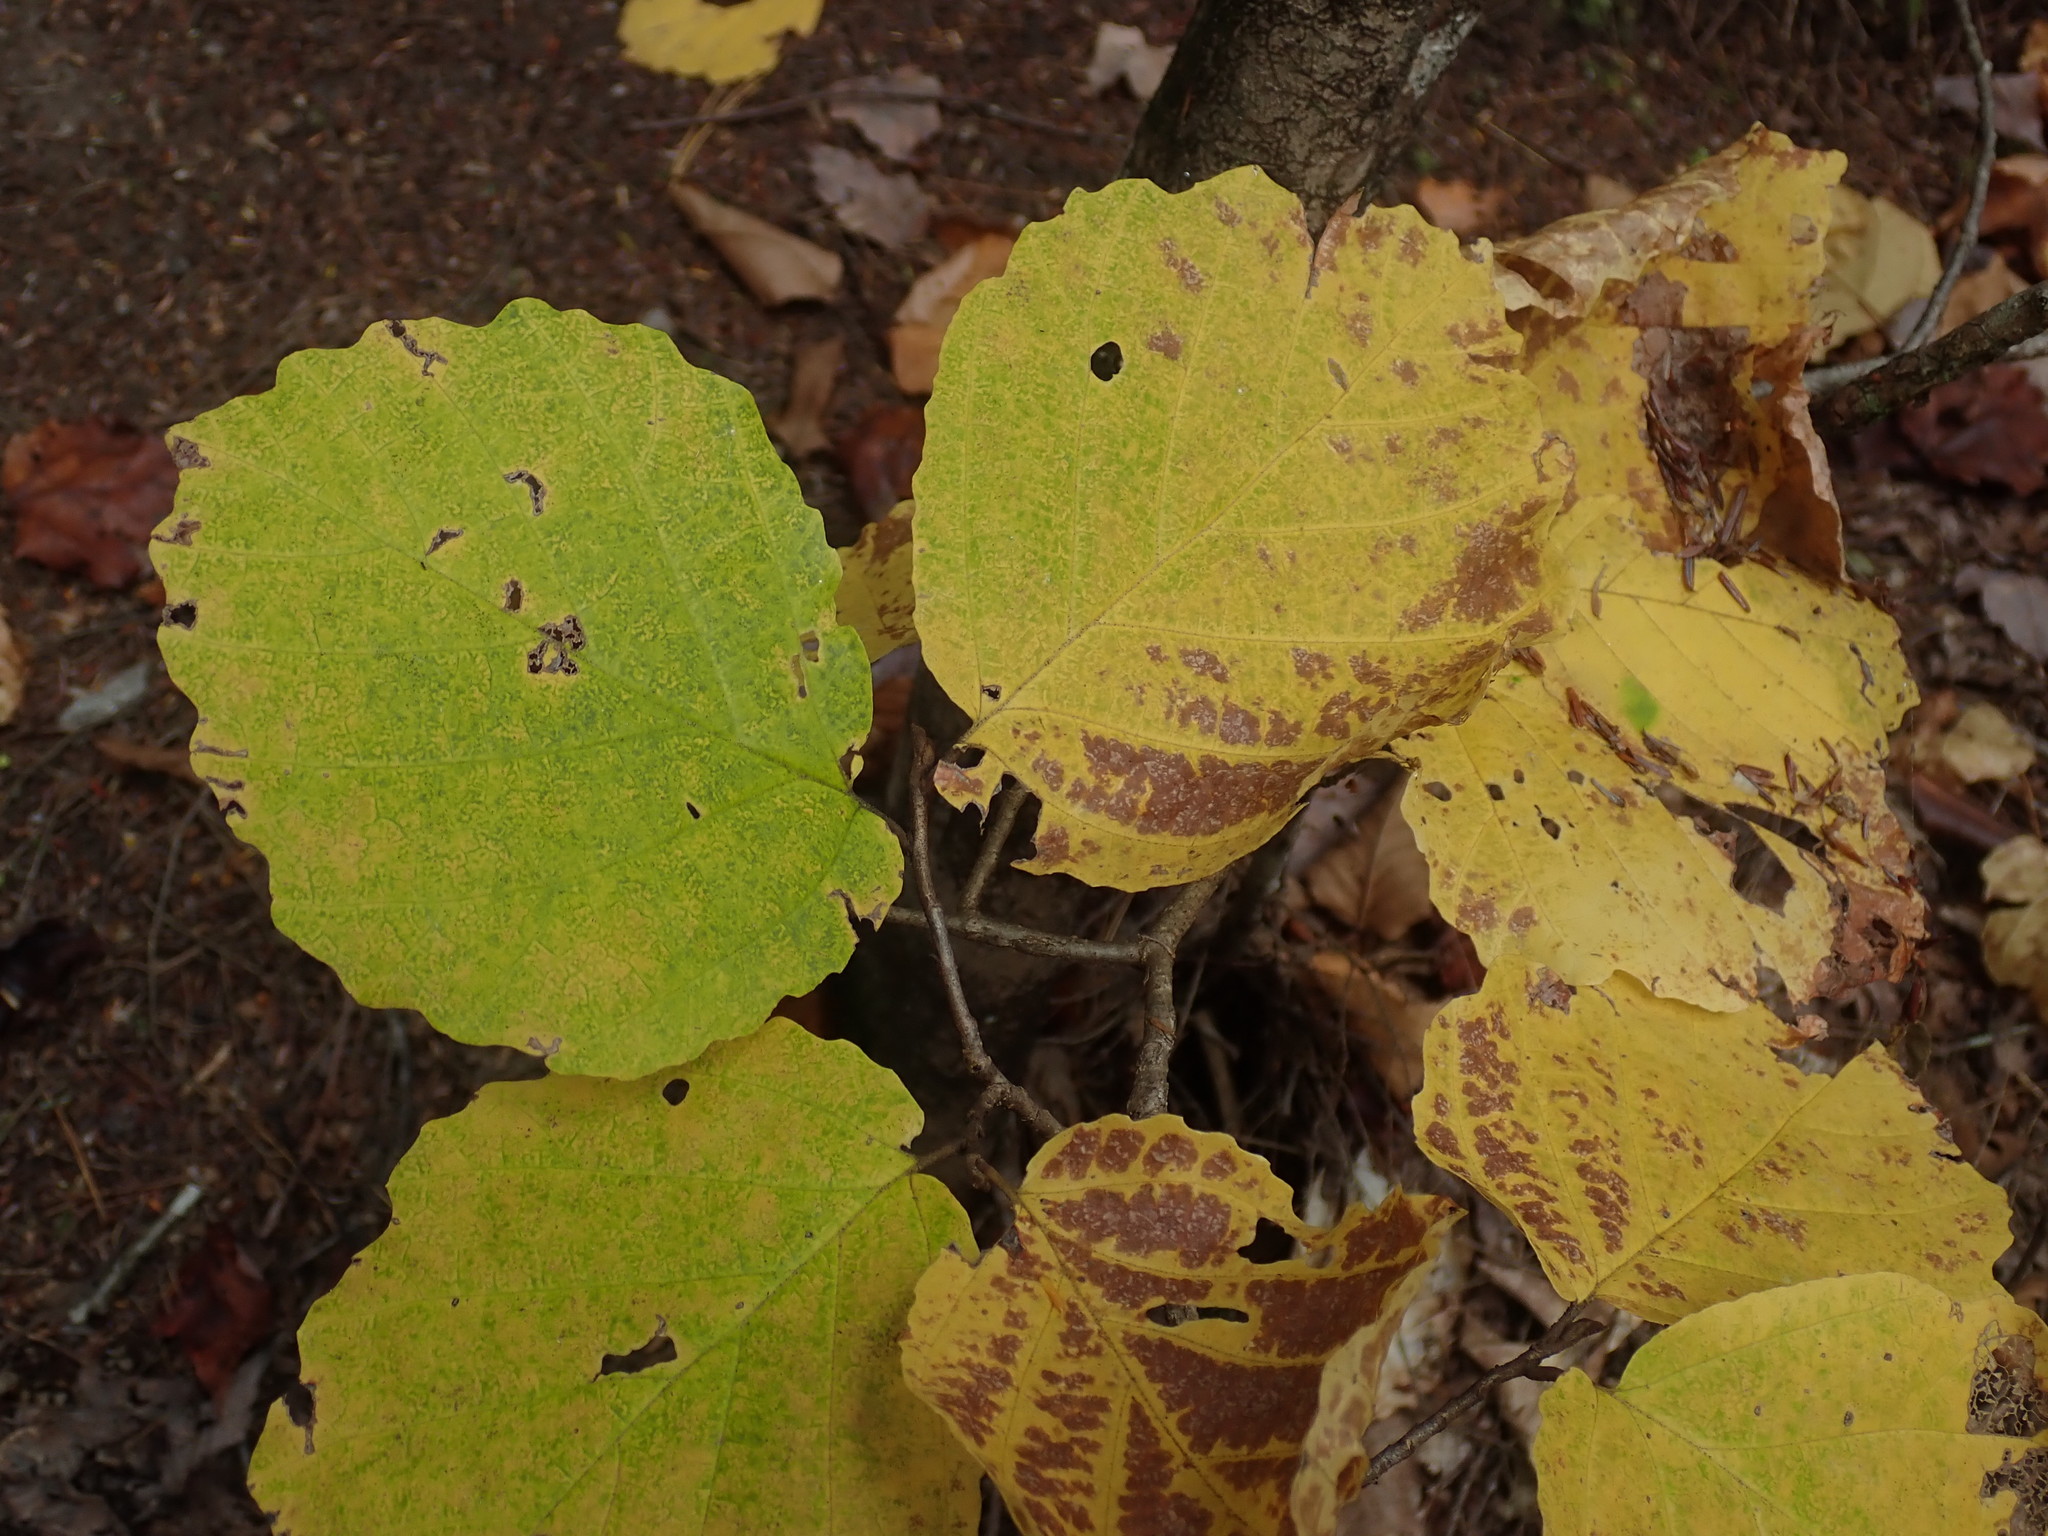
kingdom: Plantae
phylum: Tracheophyta
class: Magnoliopsida
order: Saxifragales
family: Hamamelidaceae
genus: Hamamelis
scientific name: Hamamelis virginiana
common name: Witch-hazel
